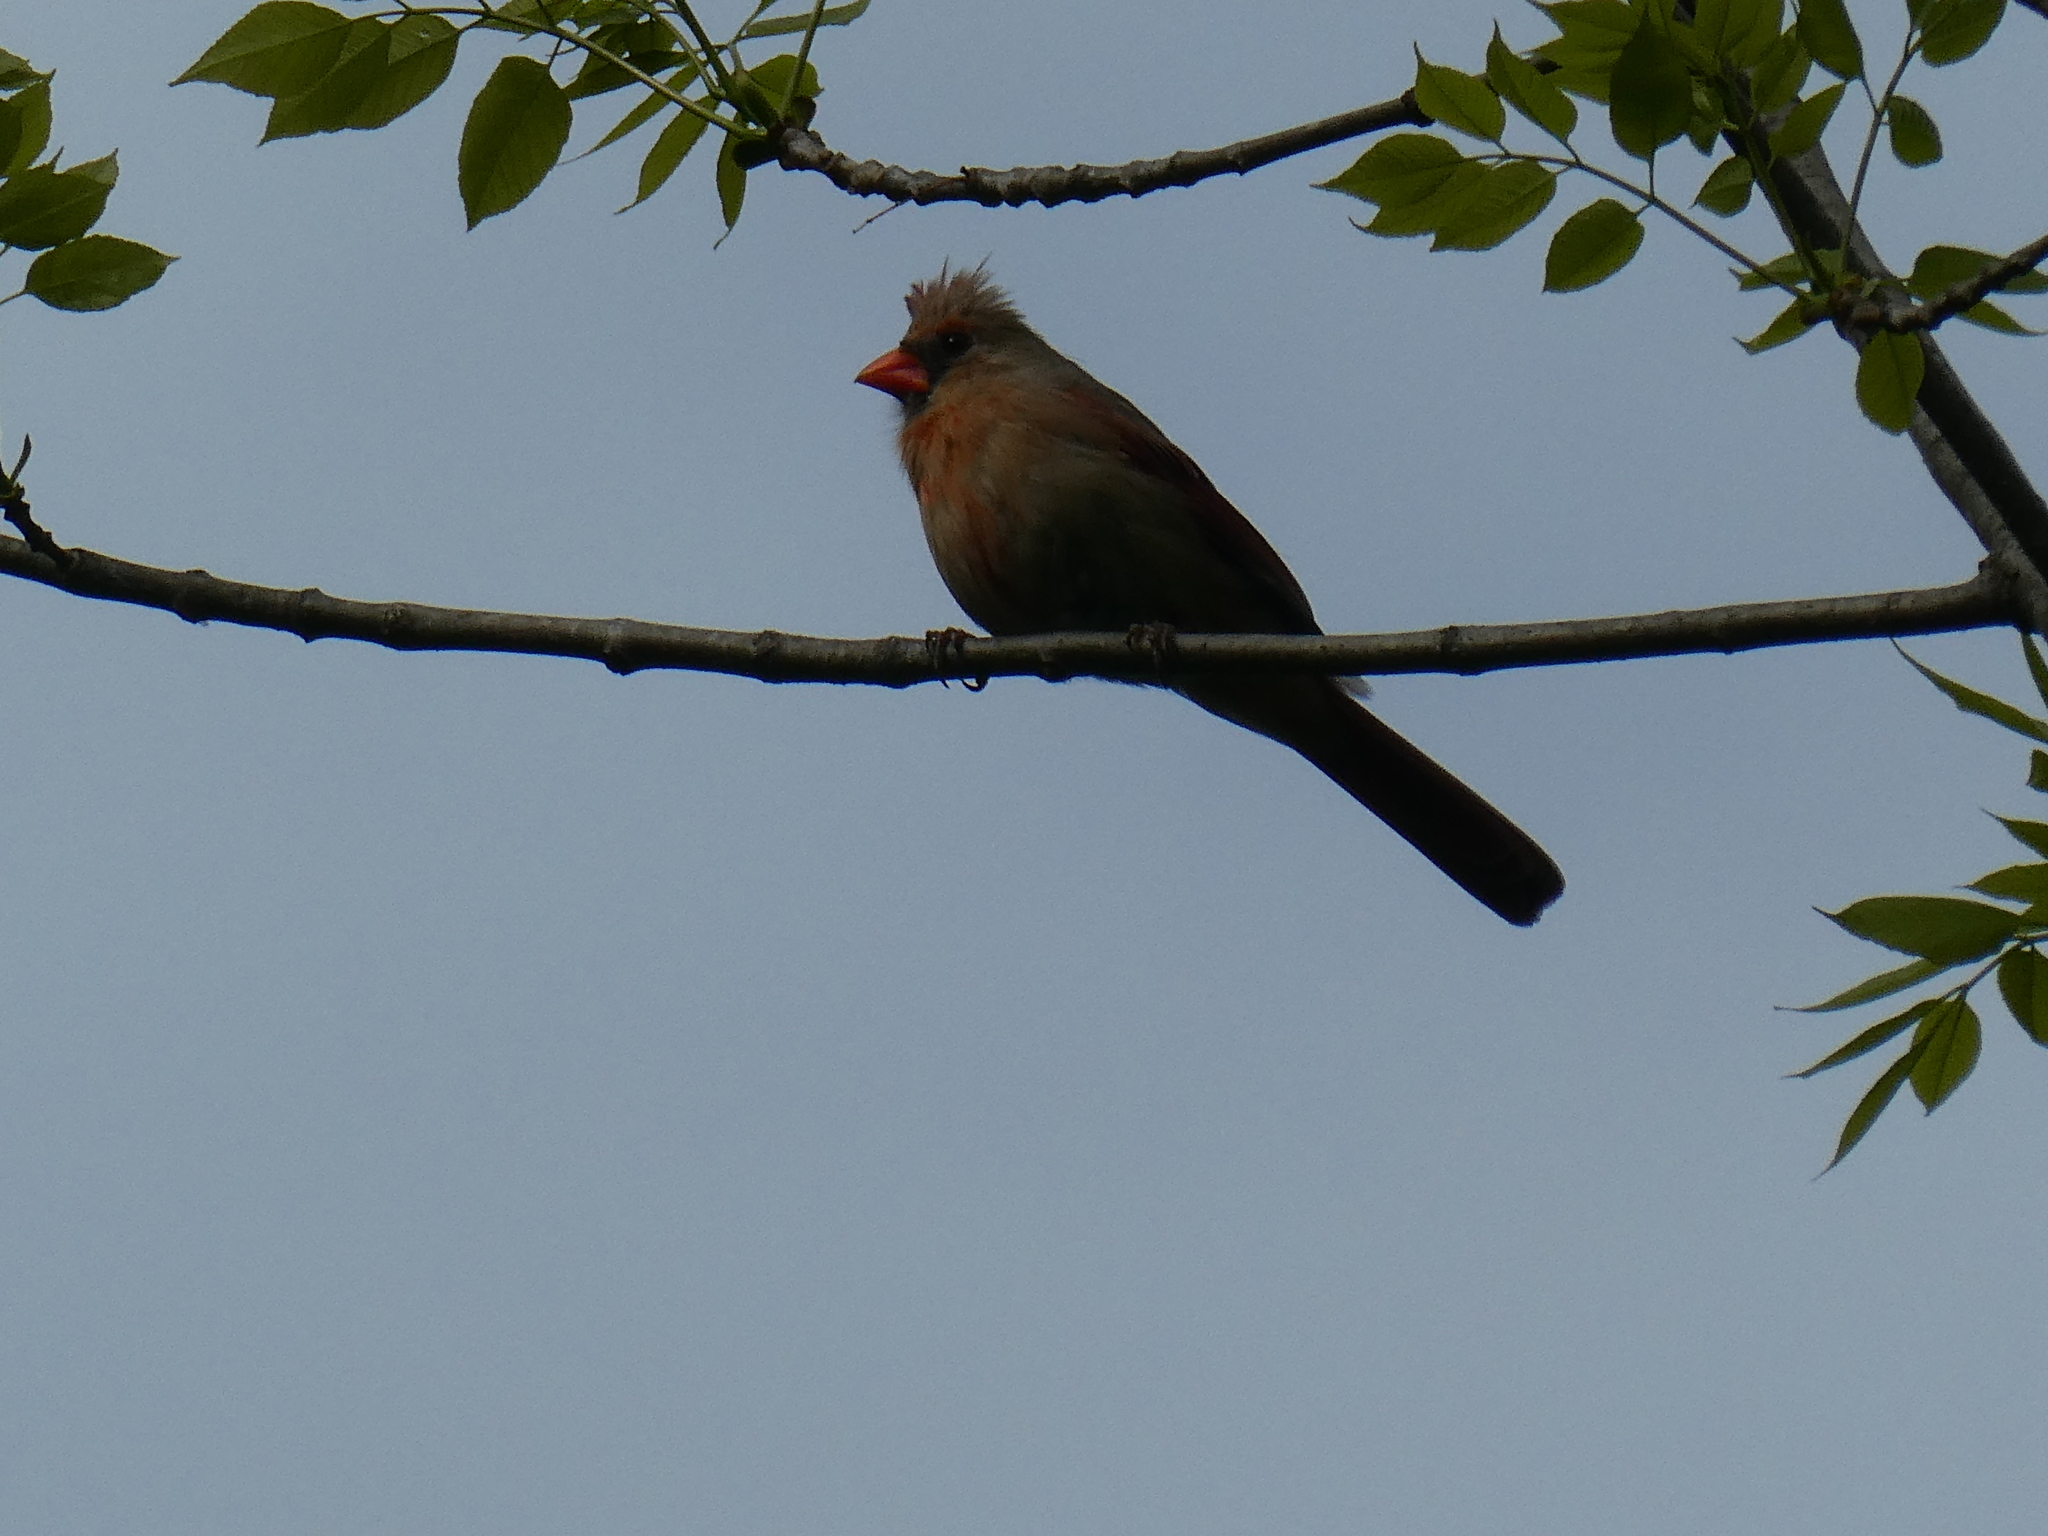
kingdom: Animalia
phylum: Chordata
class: Aves
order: Passeriformes
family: Cardinalidae
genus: Cardinalis
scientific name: Cardinalis cardinalis
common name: Northern cardinal
